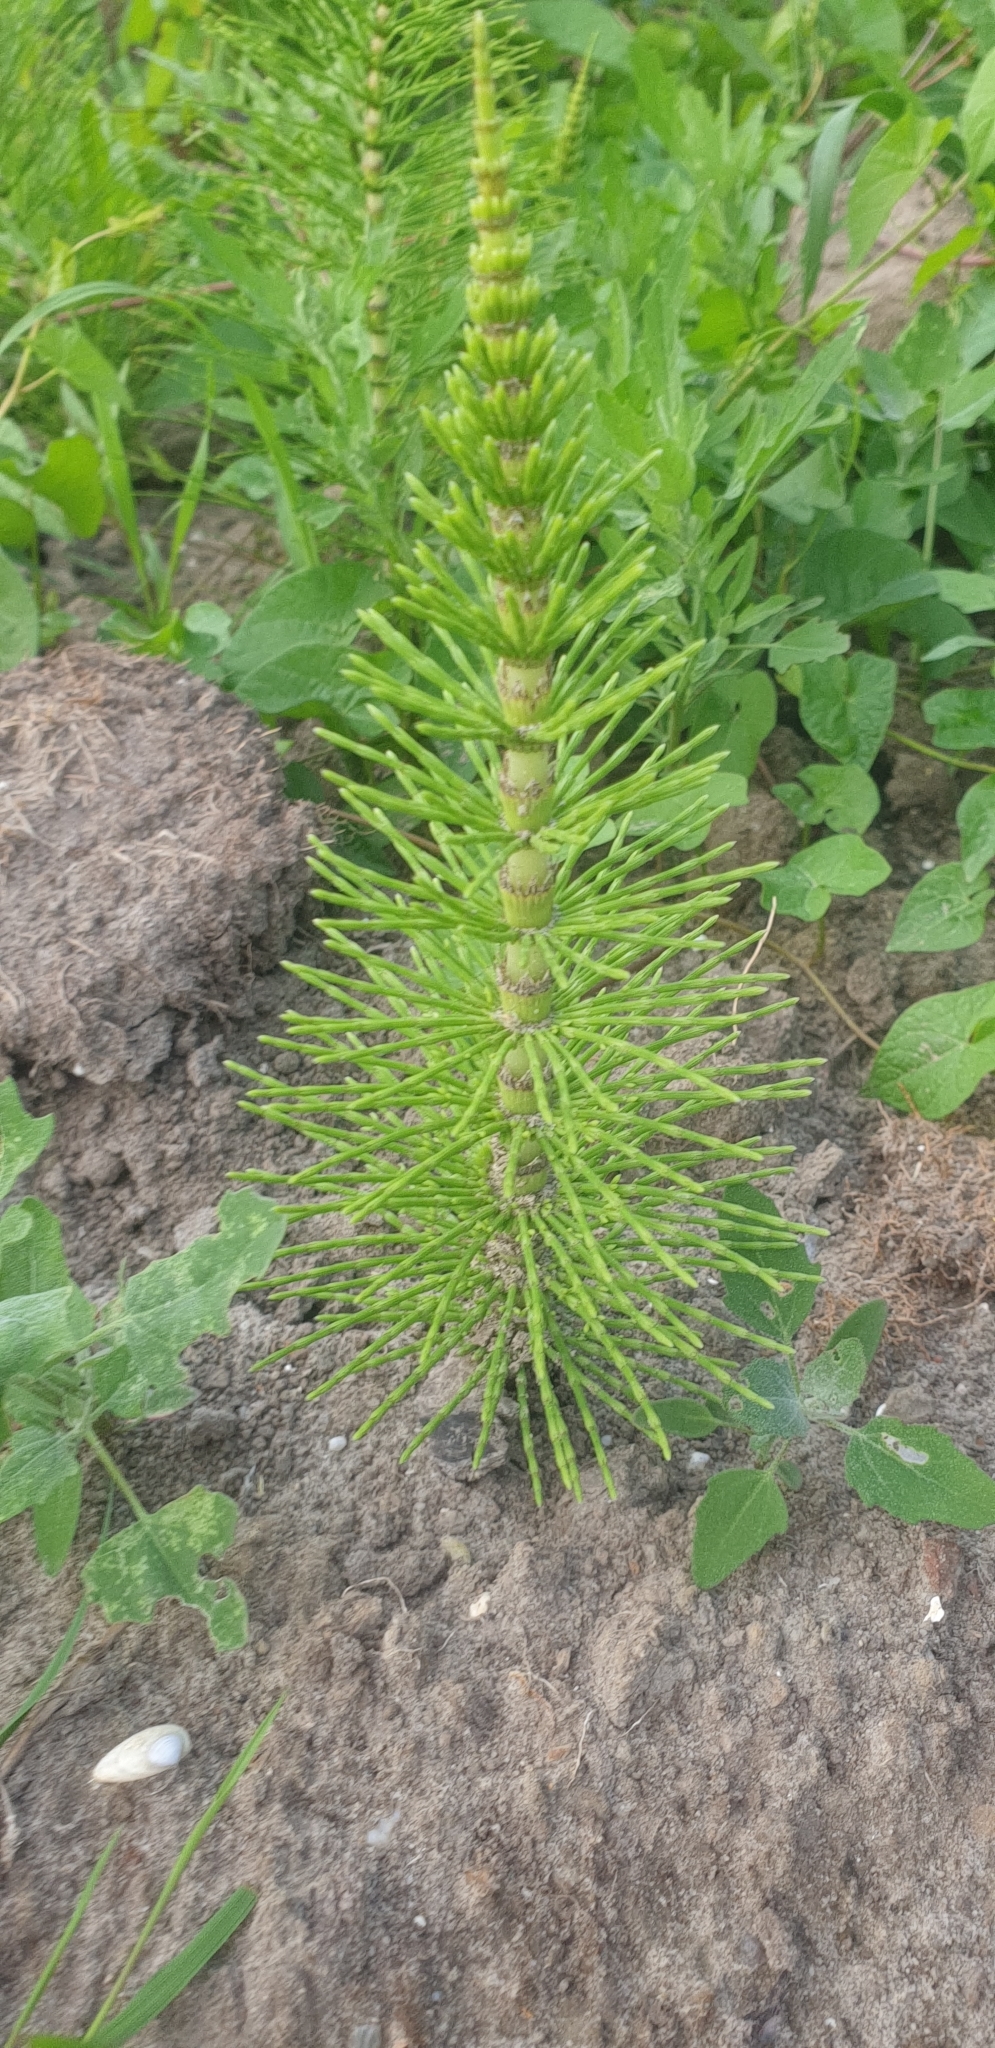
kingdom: Plantae
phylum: Tracheophyta
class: Polypodiopsida
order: Equisetales
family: Equisetaceae
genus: Equisetum
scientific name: Equisetum telmateia
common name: Great horsetail
